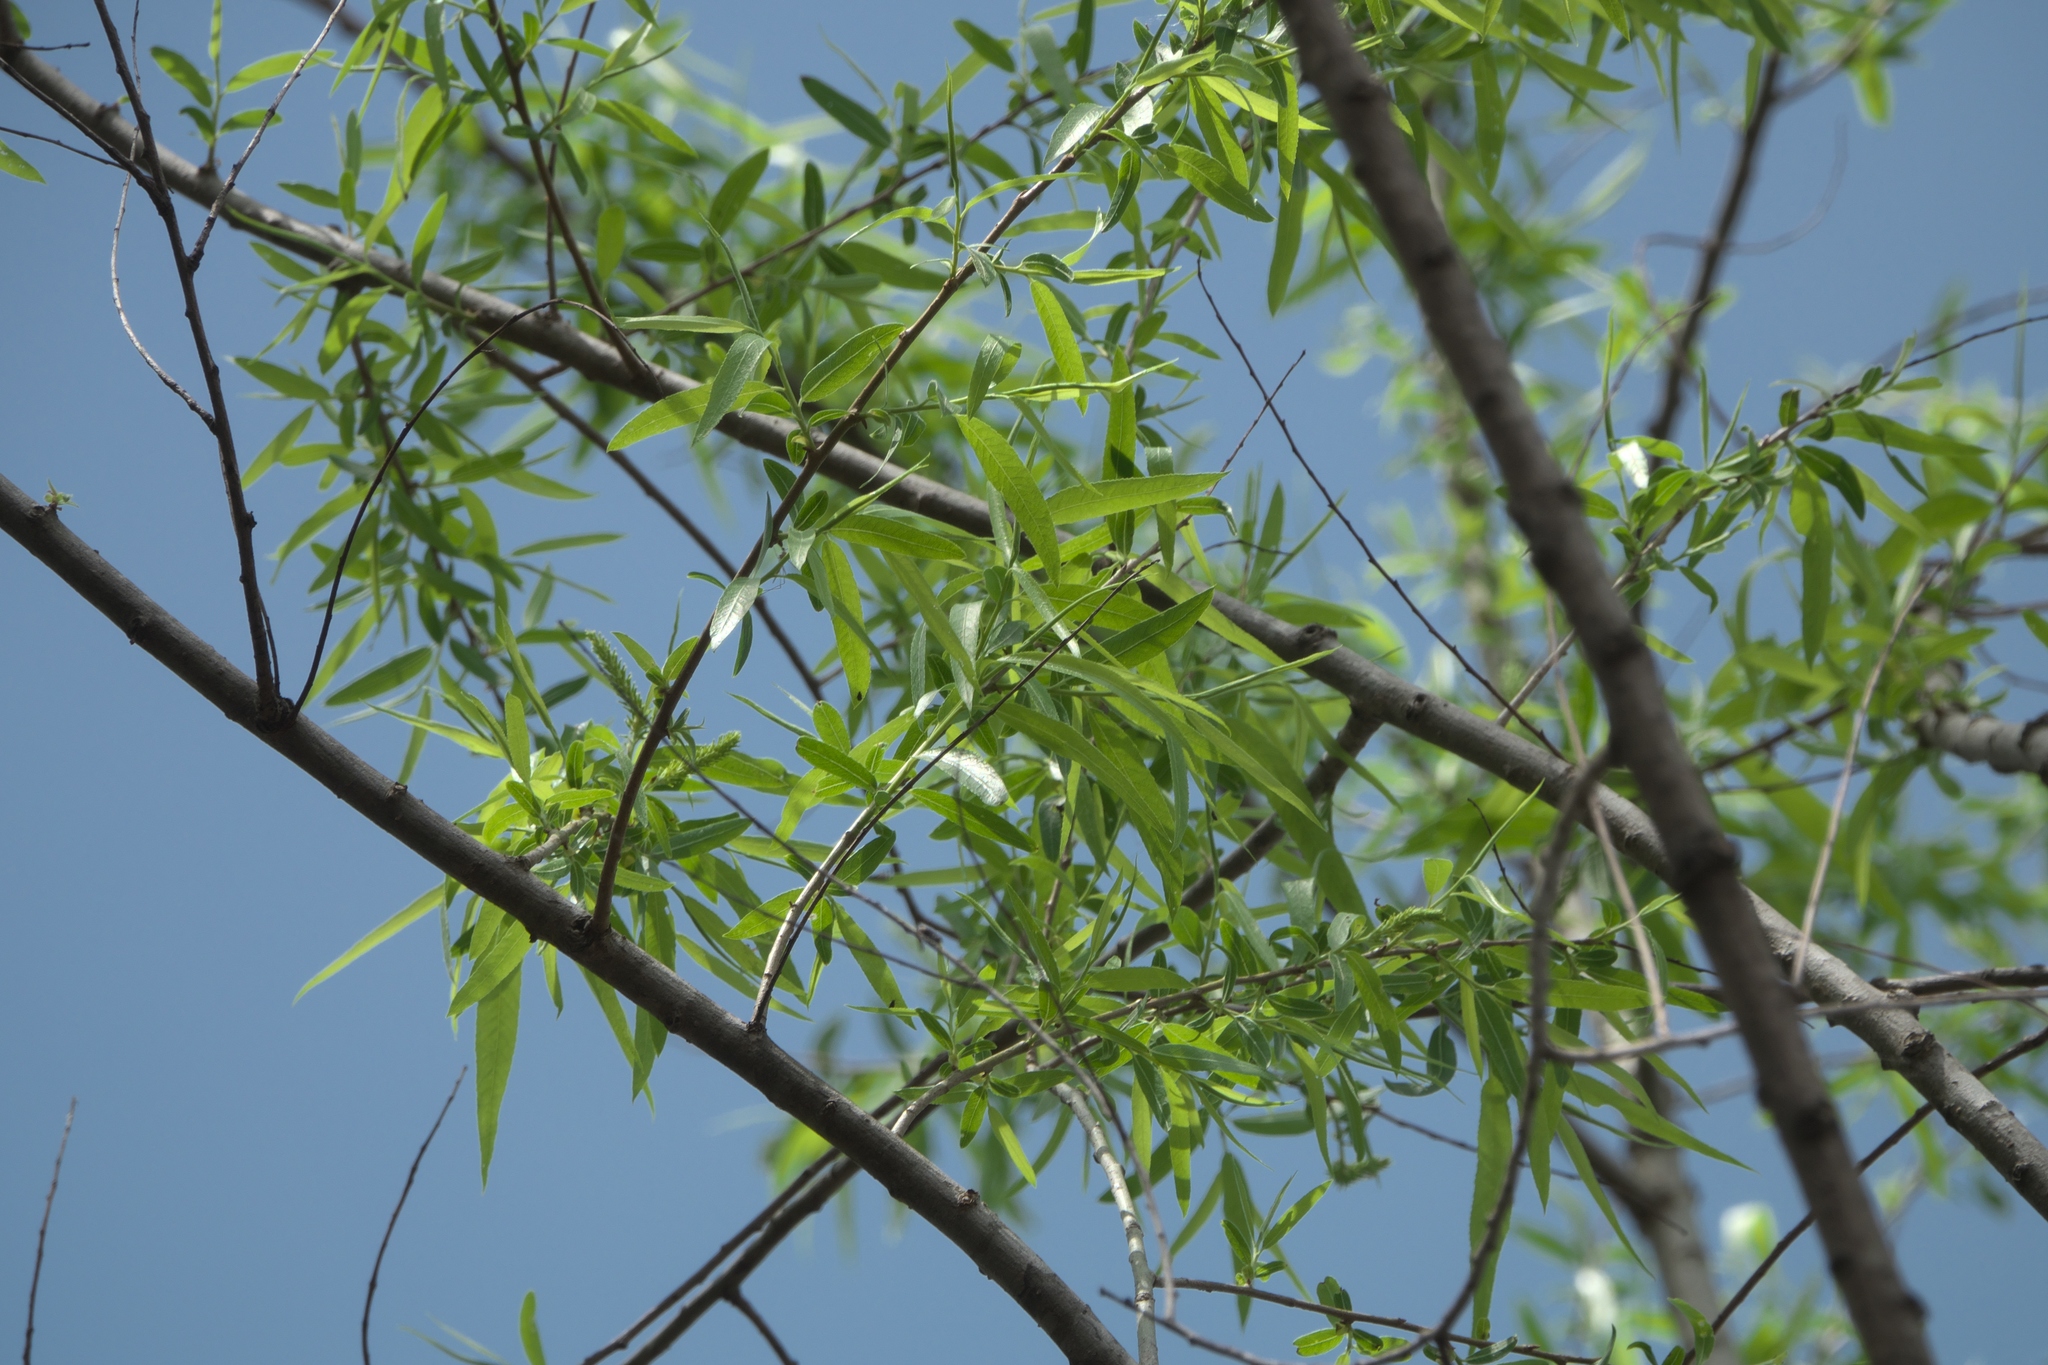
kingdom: Plantae
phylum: Tracheophyta
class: Magnoliopsida
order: Malpighiales
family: Salicaceae
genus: Salix
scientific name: Salix nigra
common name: Black willow
